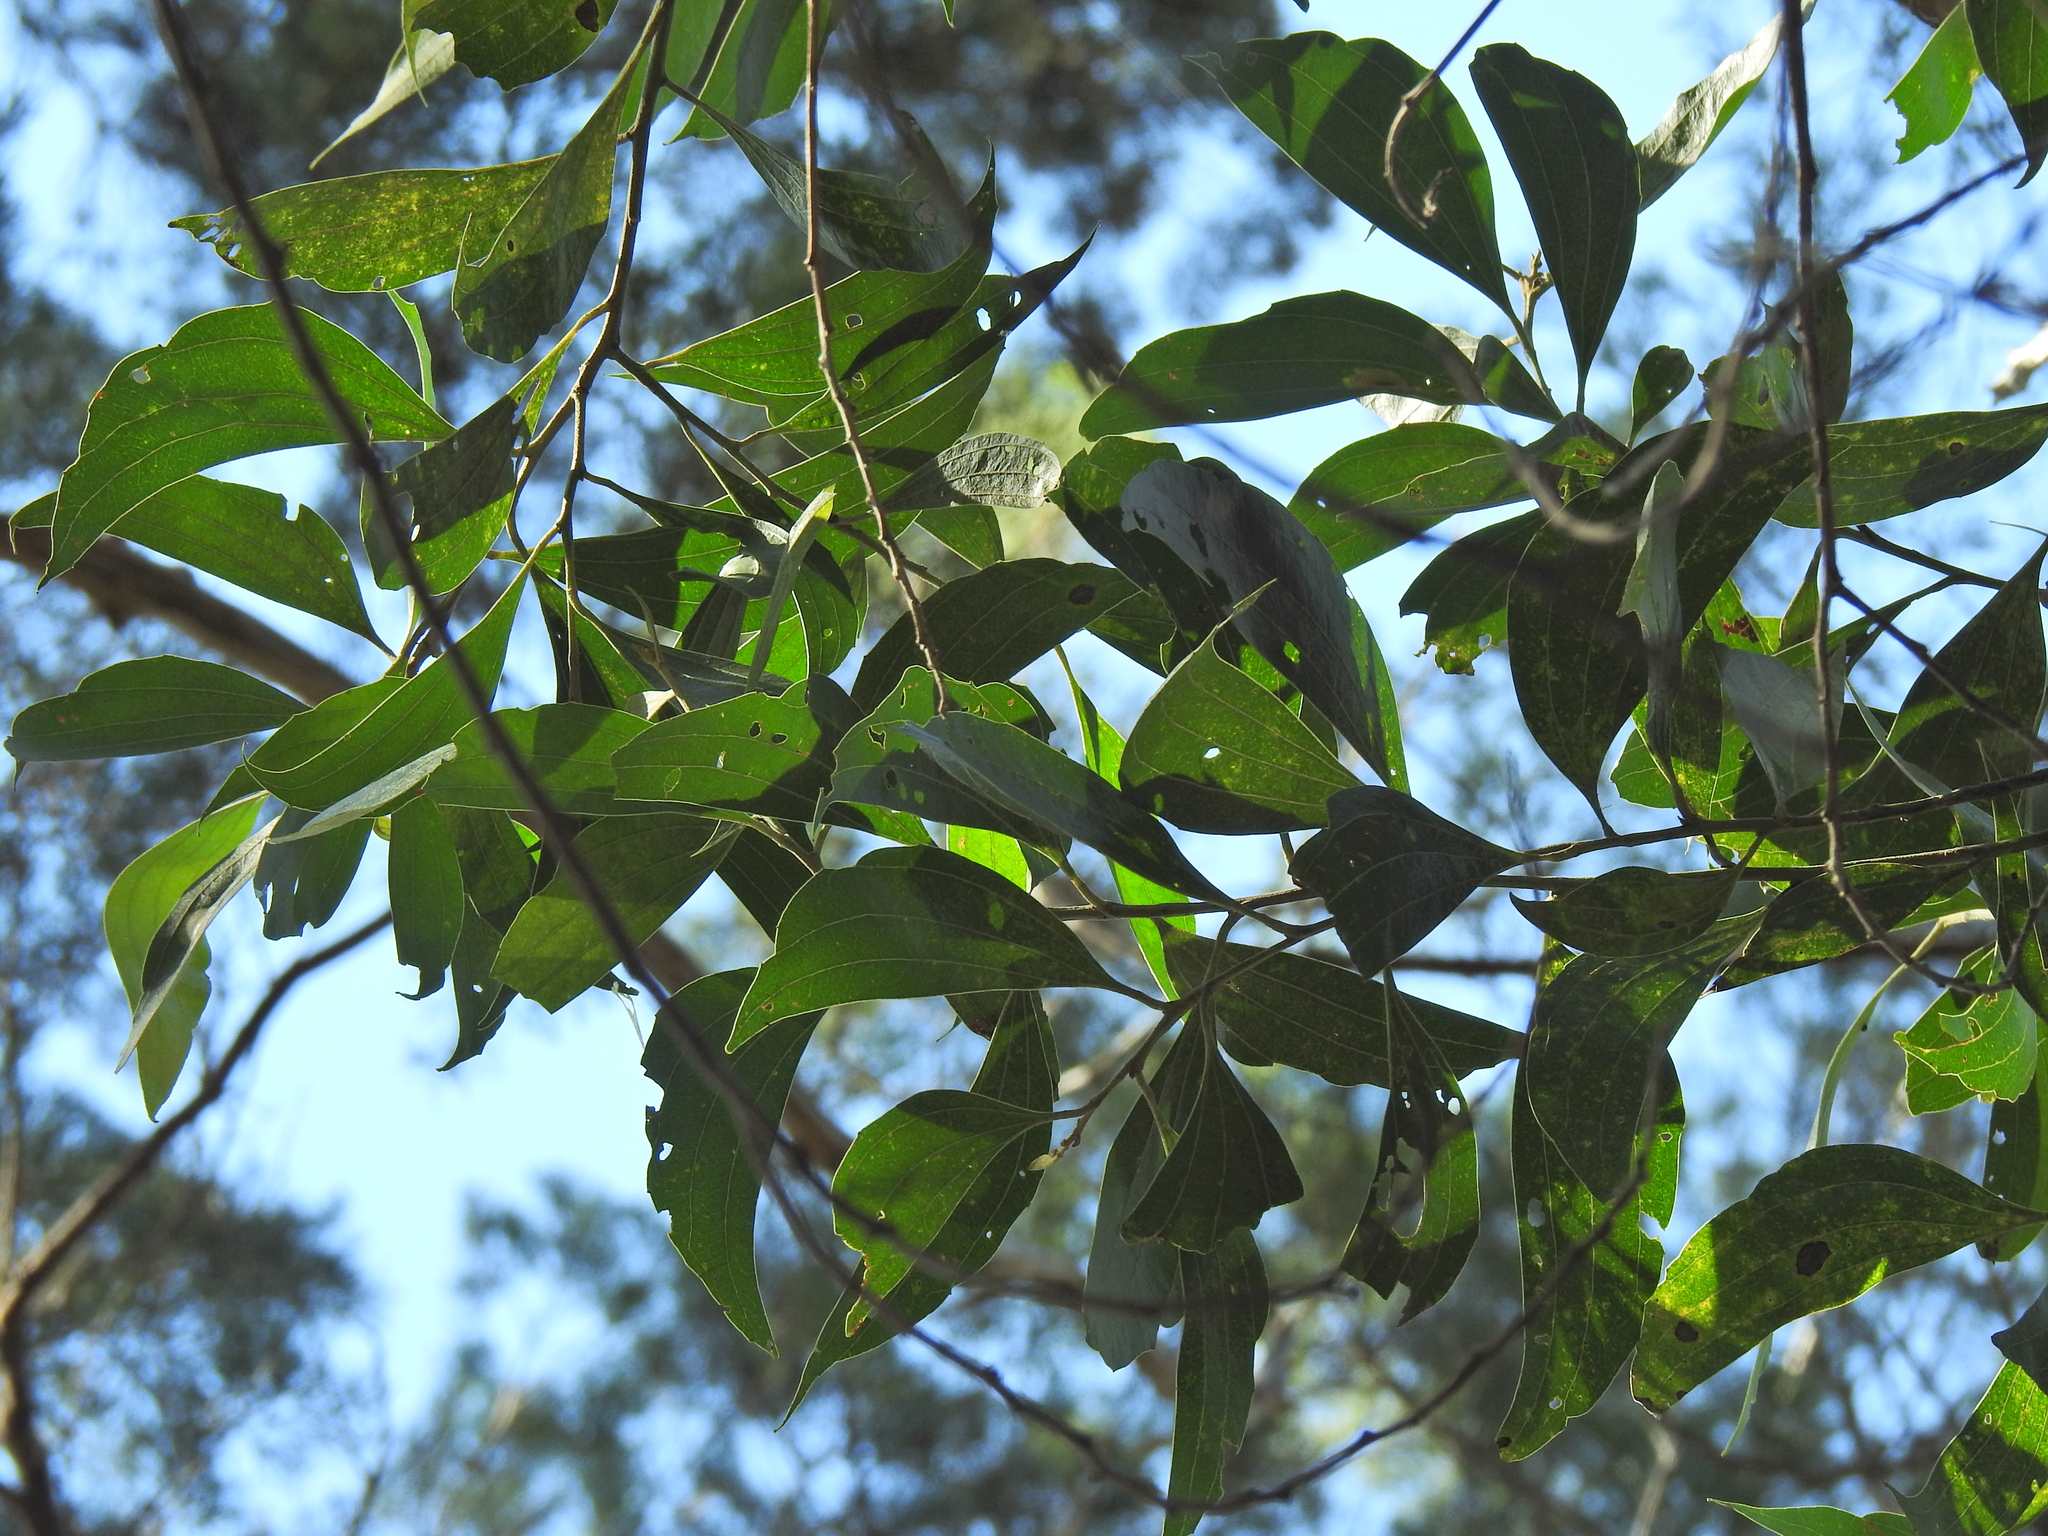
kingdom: Plantae
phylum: Tracheophyta
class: Magnoliopsida
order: Fabales
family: Fabaceae
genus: Acacia
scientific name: Acacia flavescens
